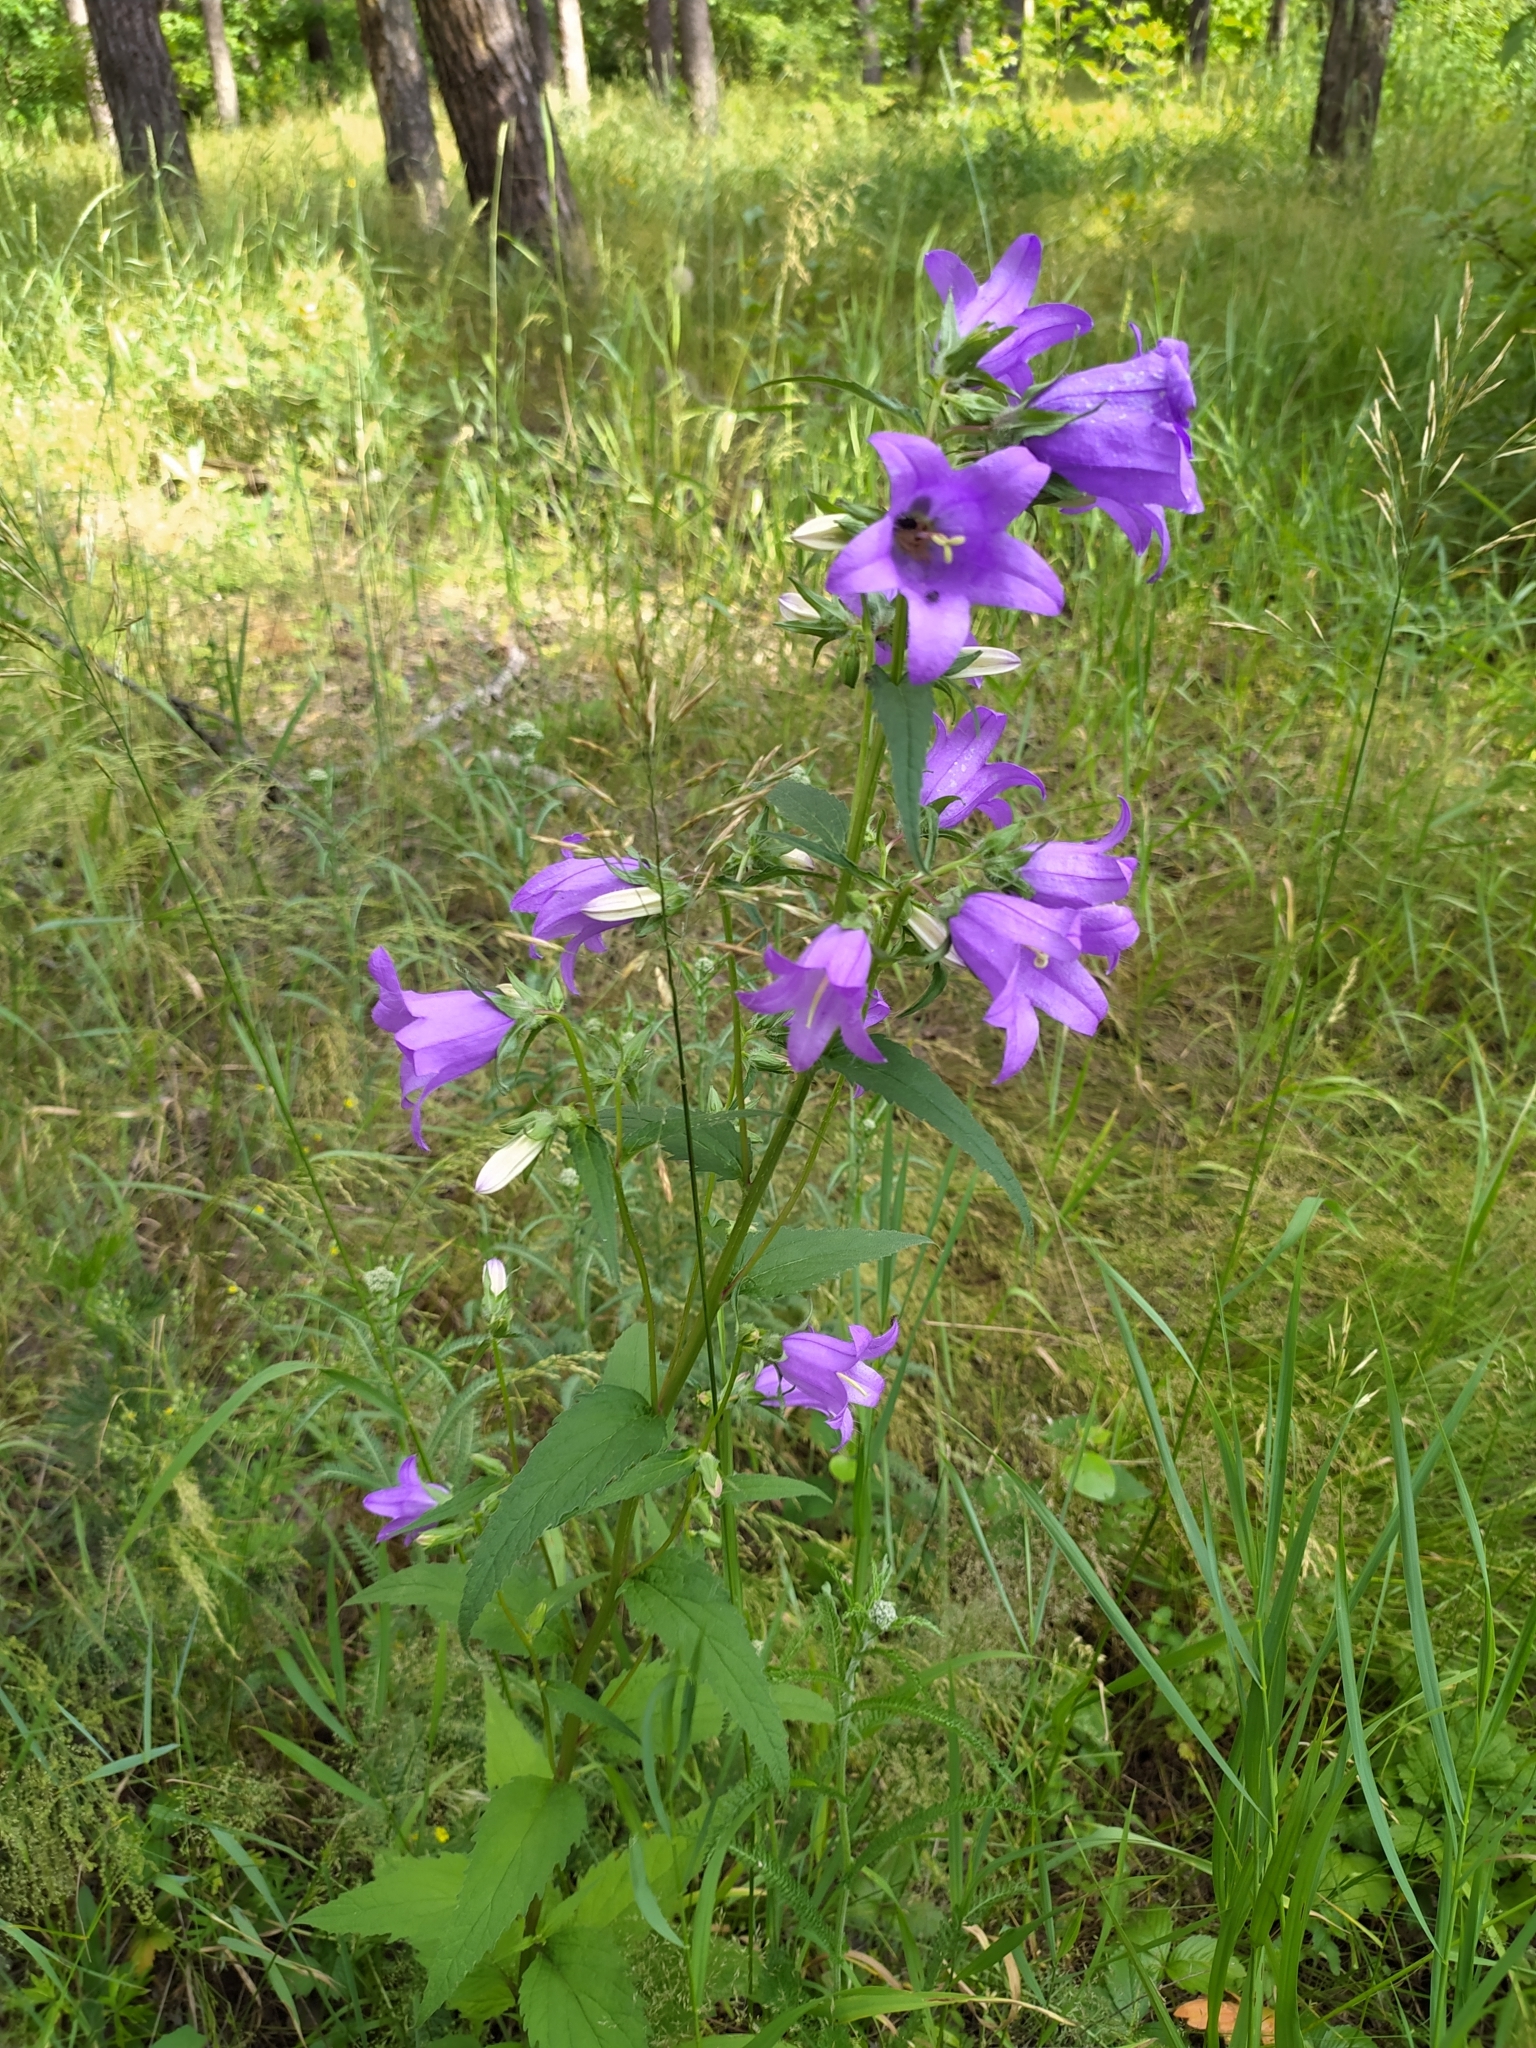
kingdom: Plantae
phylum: Tracheophyta
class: Magnoliopsida
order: Asterales
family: Campanulaceae
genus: Campanula
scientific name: Campanula trachelium
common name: Nettle-leaved bellflower
